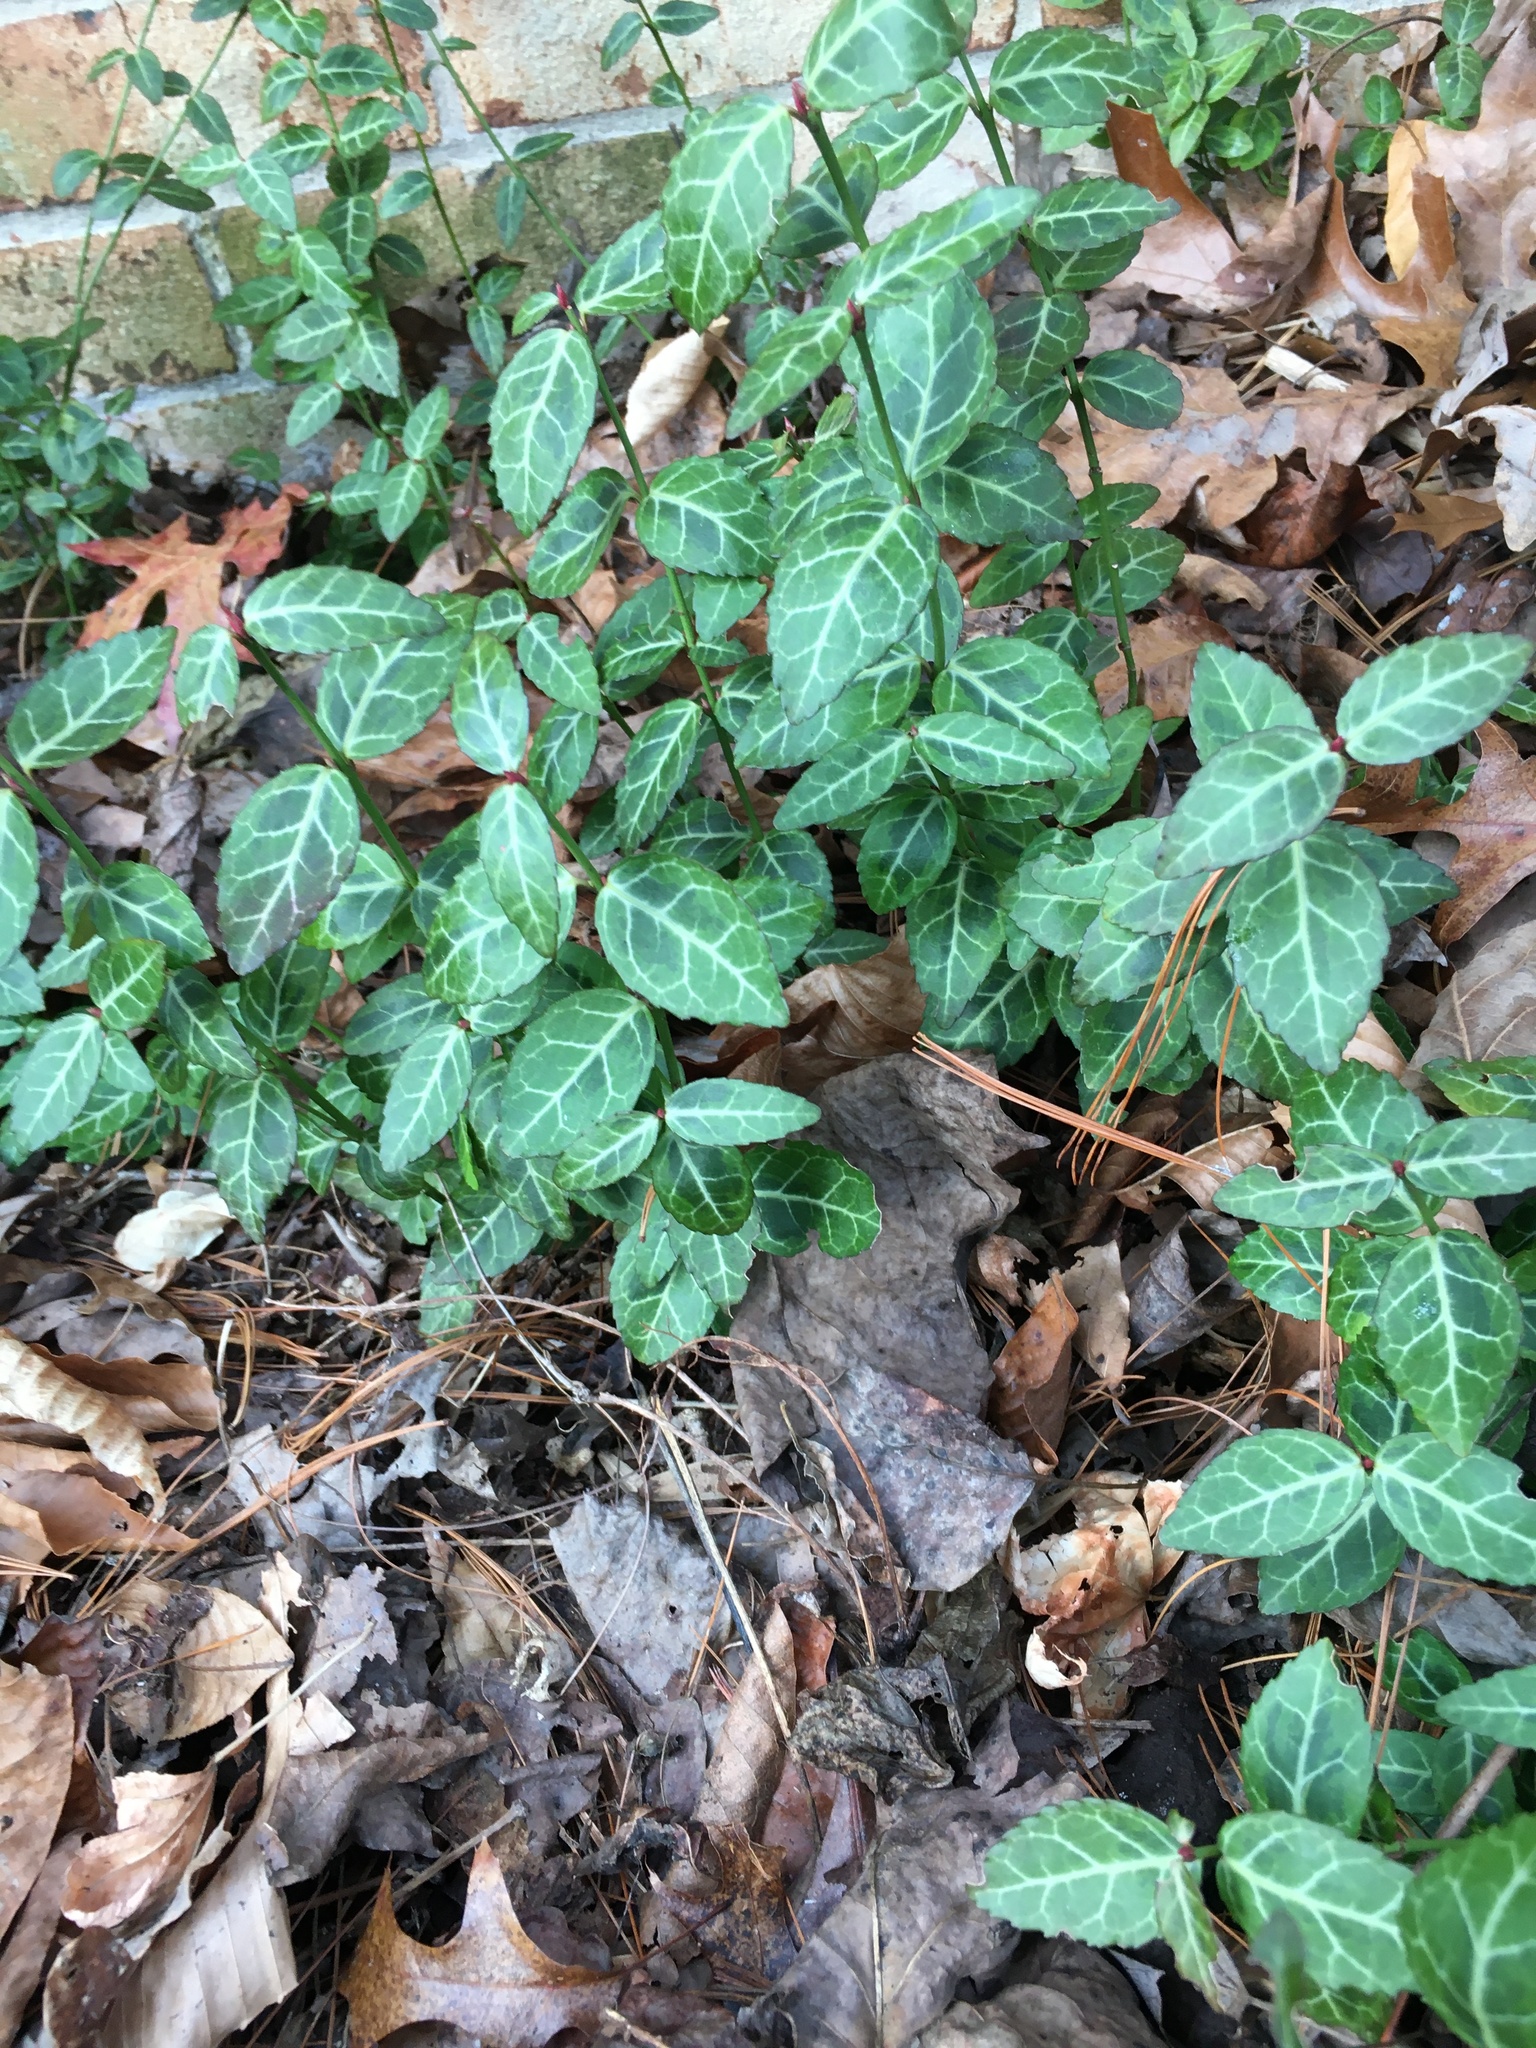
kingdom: Plantae
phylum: Tracheophyta
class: Magnoliopsida
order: Celastrales
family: Celastraceae
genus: Euonymus
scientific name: Euonymus fortunei
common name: Climbing euonymus
